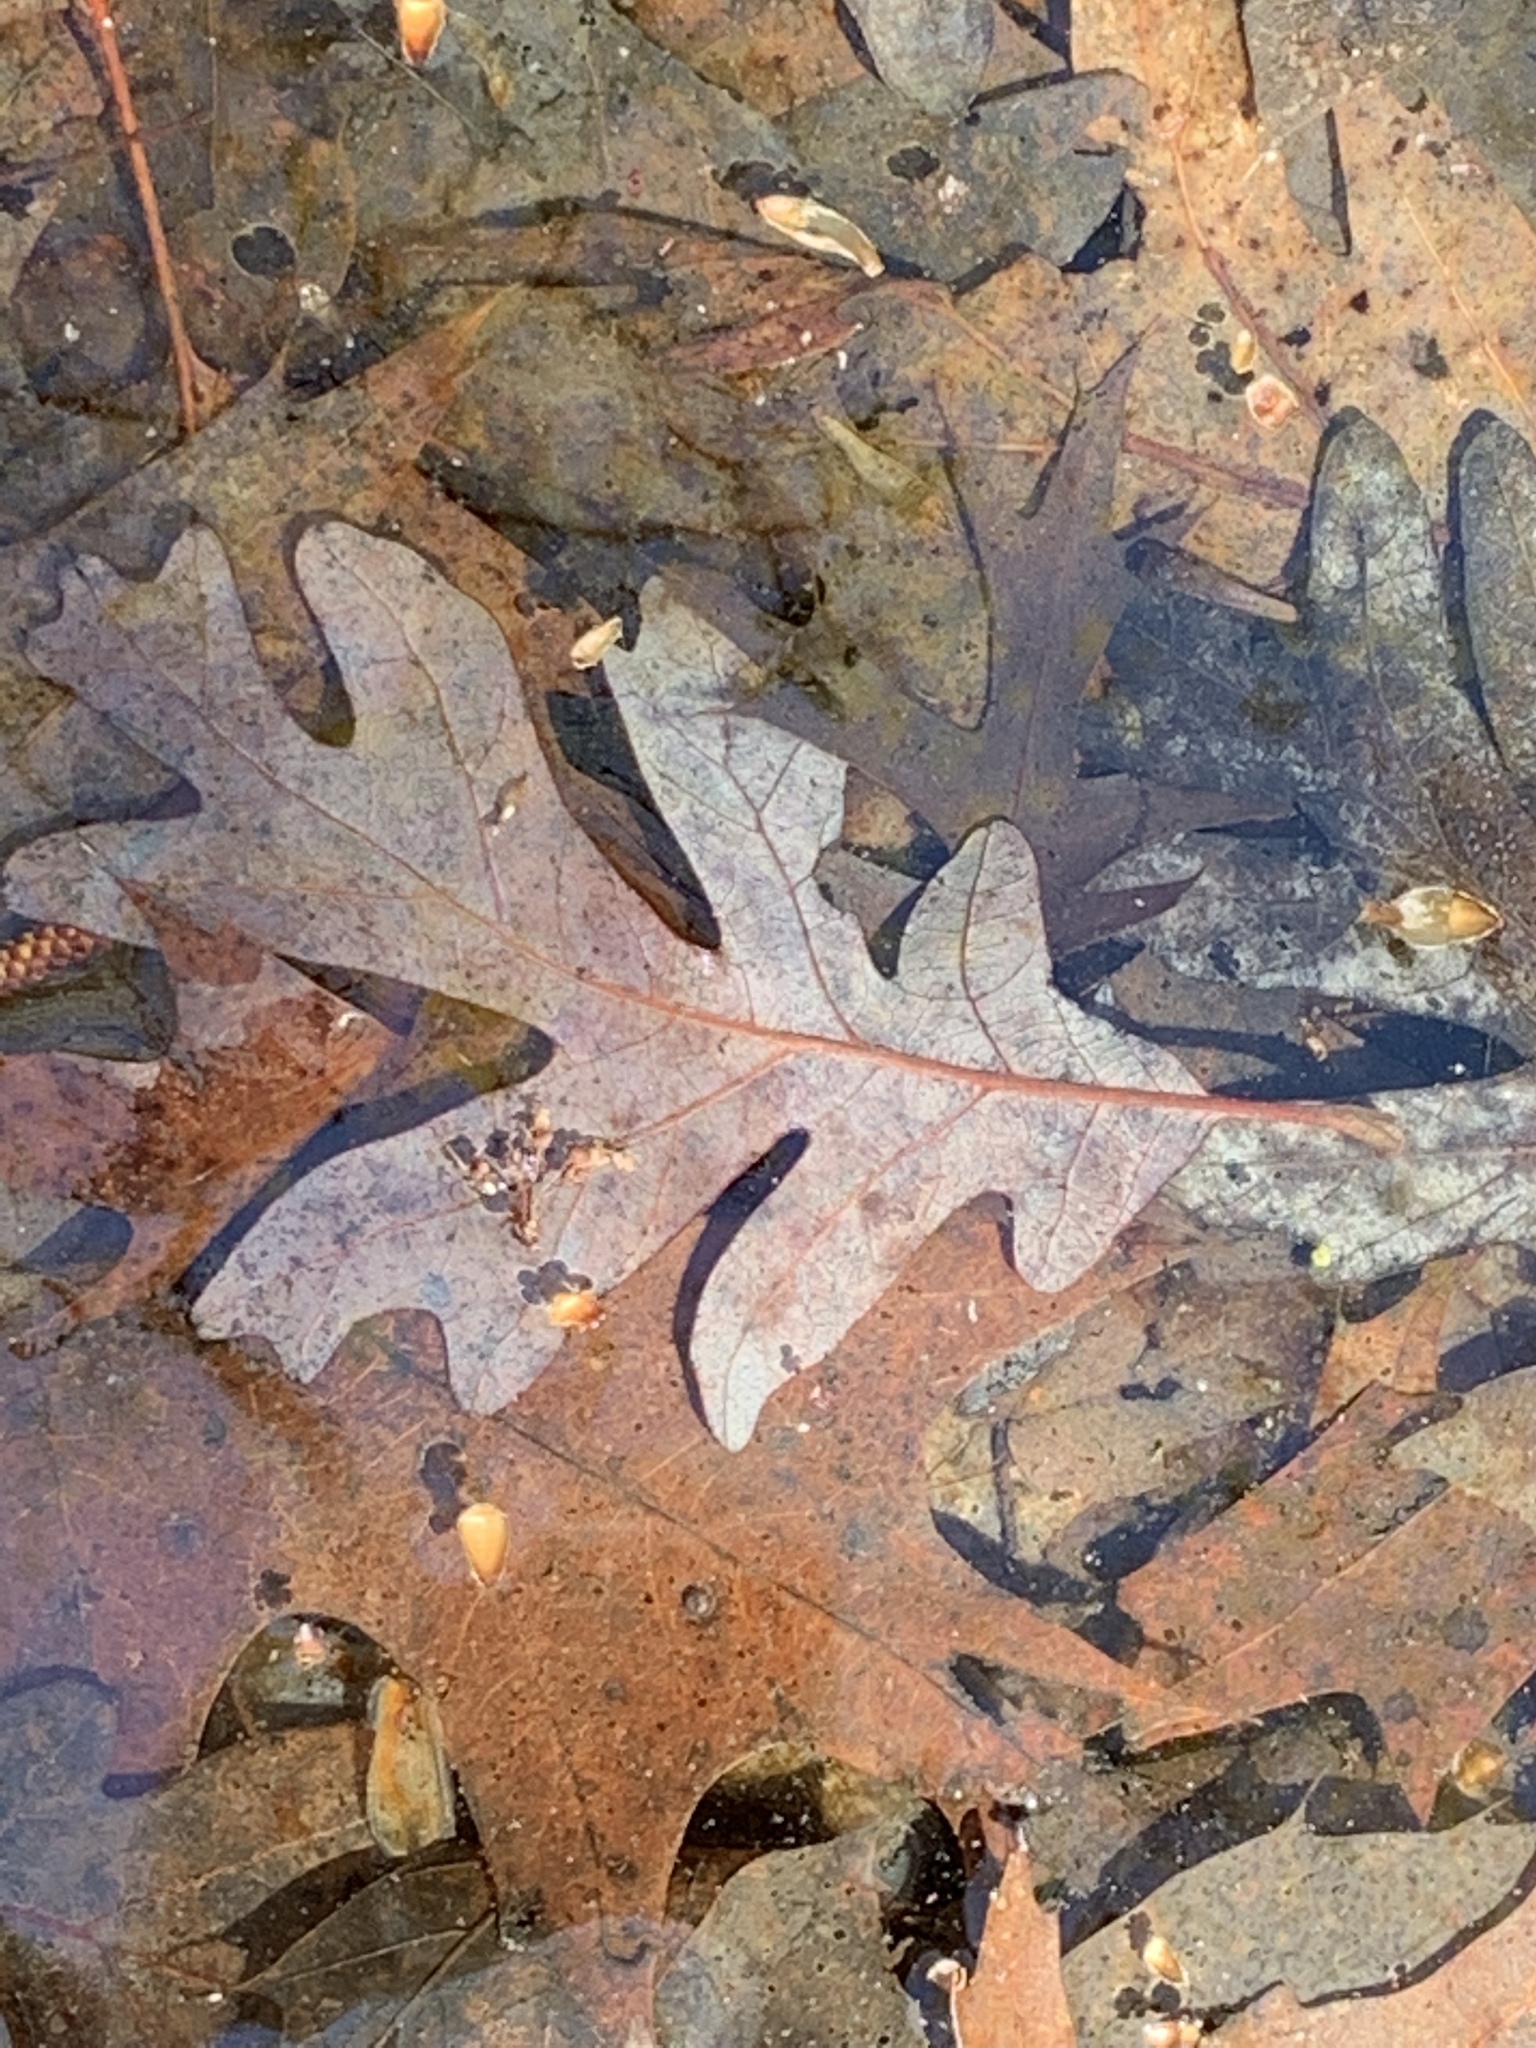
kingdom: Plantae
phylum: Tracheophyta
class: Magnoliopsida
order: Fagales
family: Fagaceae
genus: Quercus
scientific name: Quercus alba
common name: White oak
